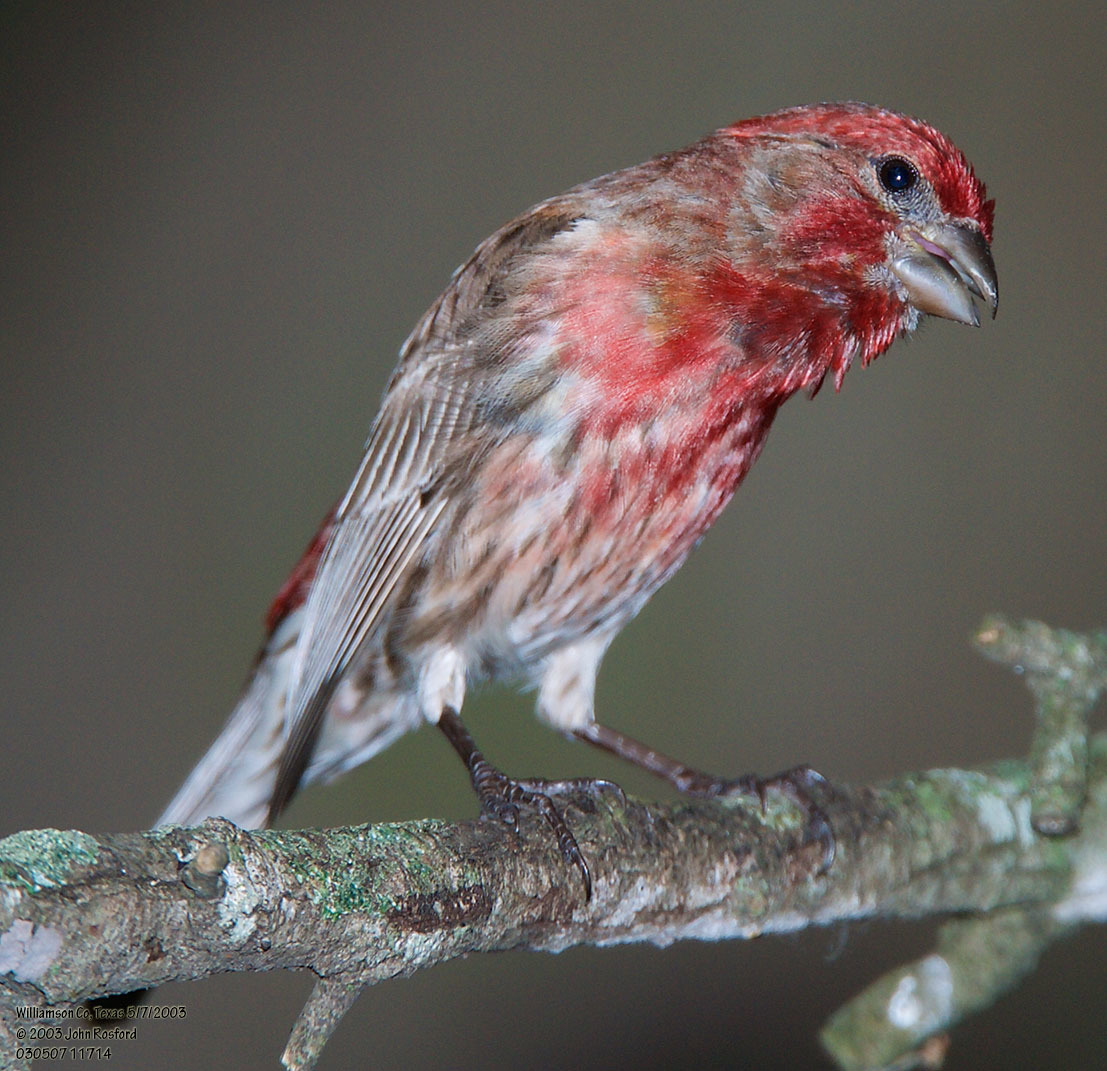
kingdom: Animalia
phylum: Chordata
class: Aves
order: Passeriformes
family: Fringillidae
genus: Haemorhous
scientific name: Haemorhous mexicanus
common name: House finch
